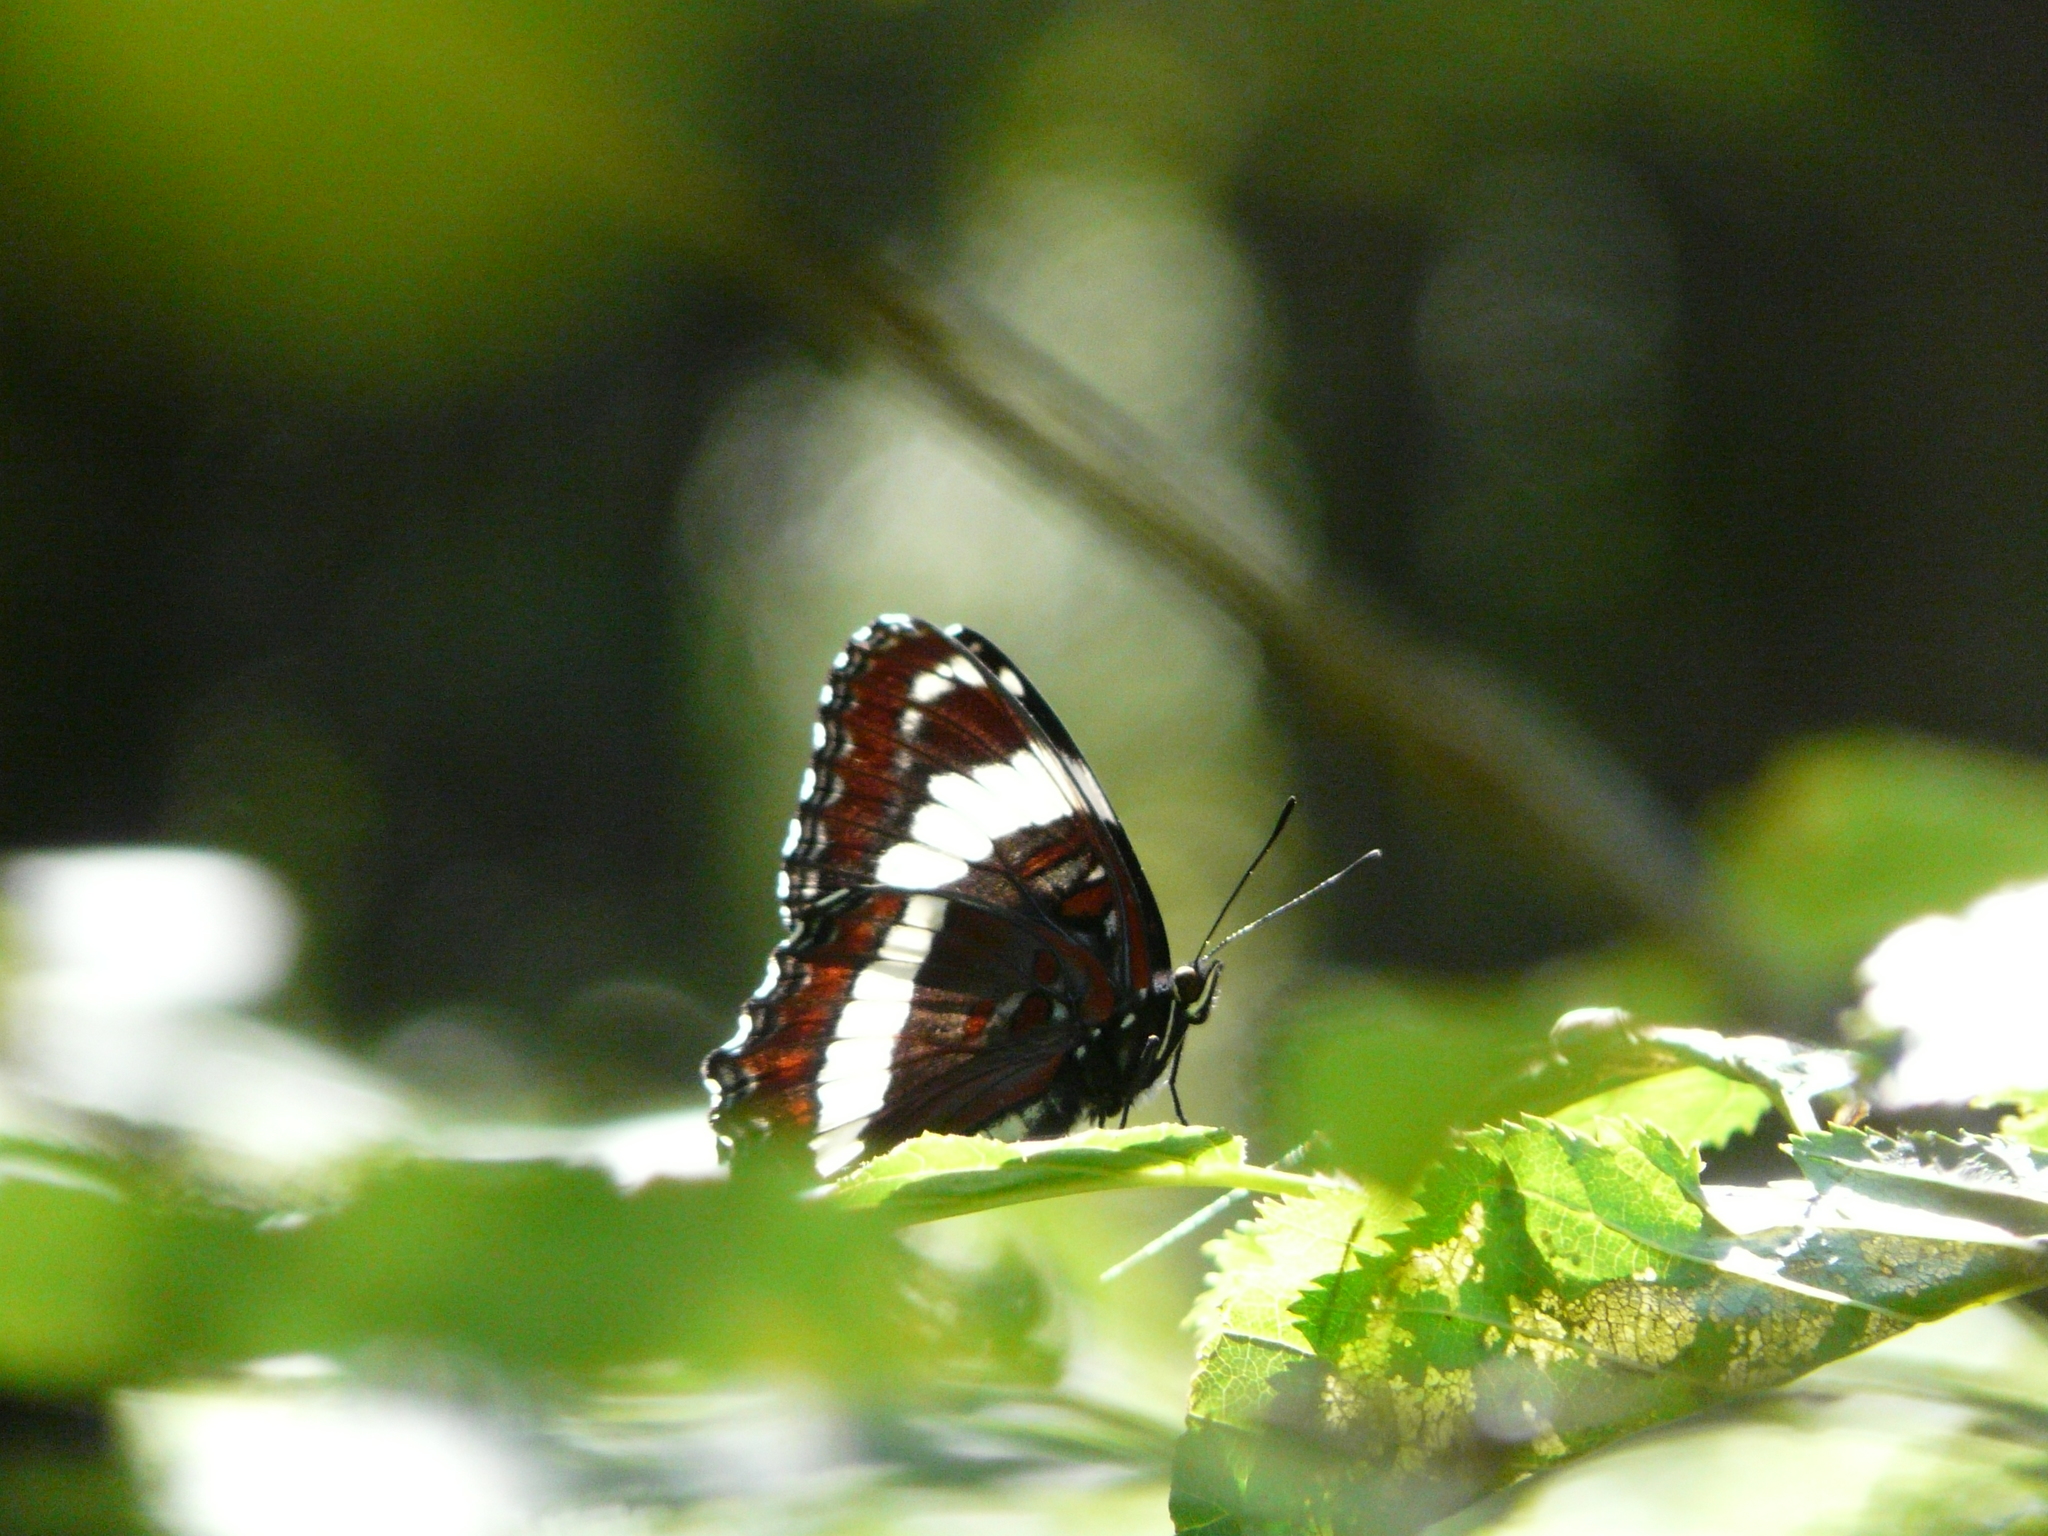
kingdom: Animalia
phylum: Arthropoda
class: Insecta
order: Lepidoptera
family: Nymphalidae
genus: Limenitis
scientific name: Limenitis arthemis
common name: Red-spotted admiral
